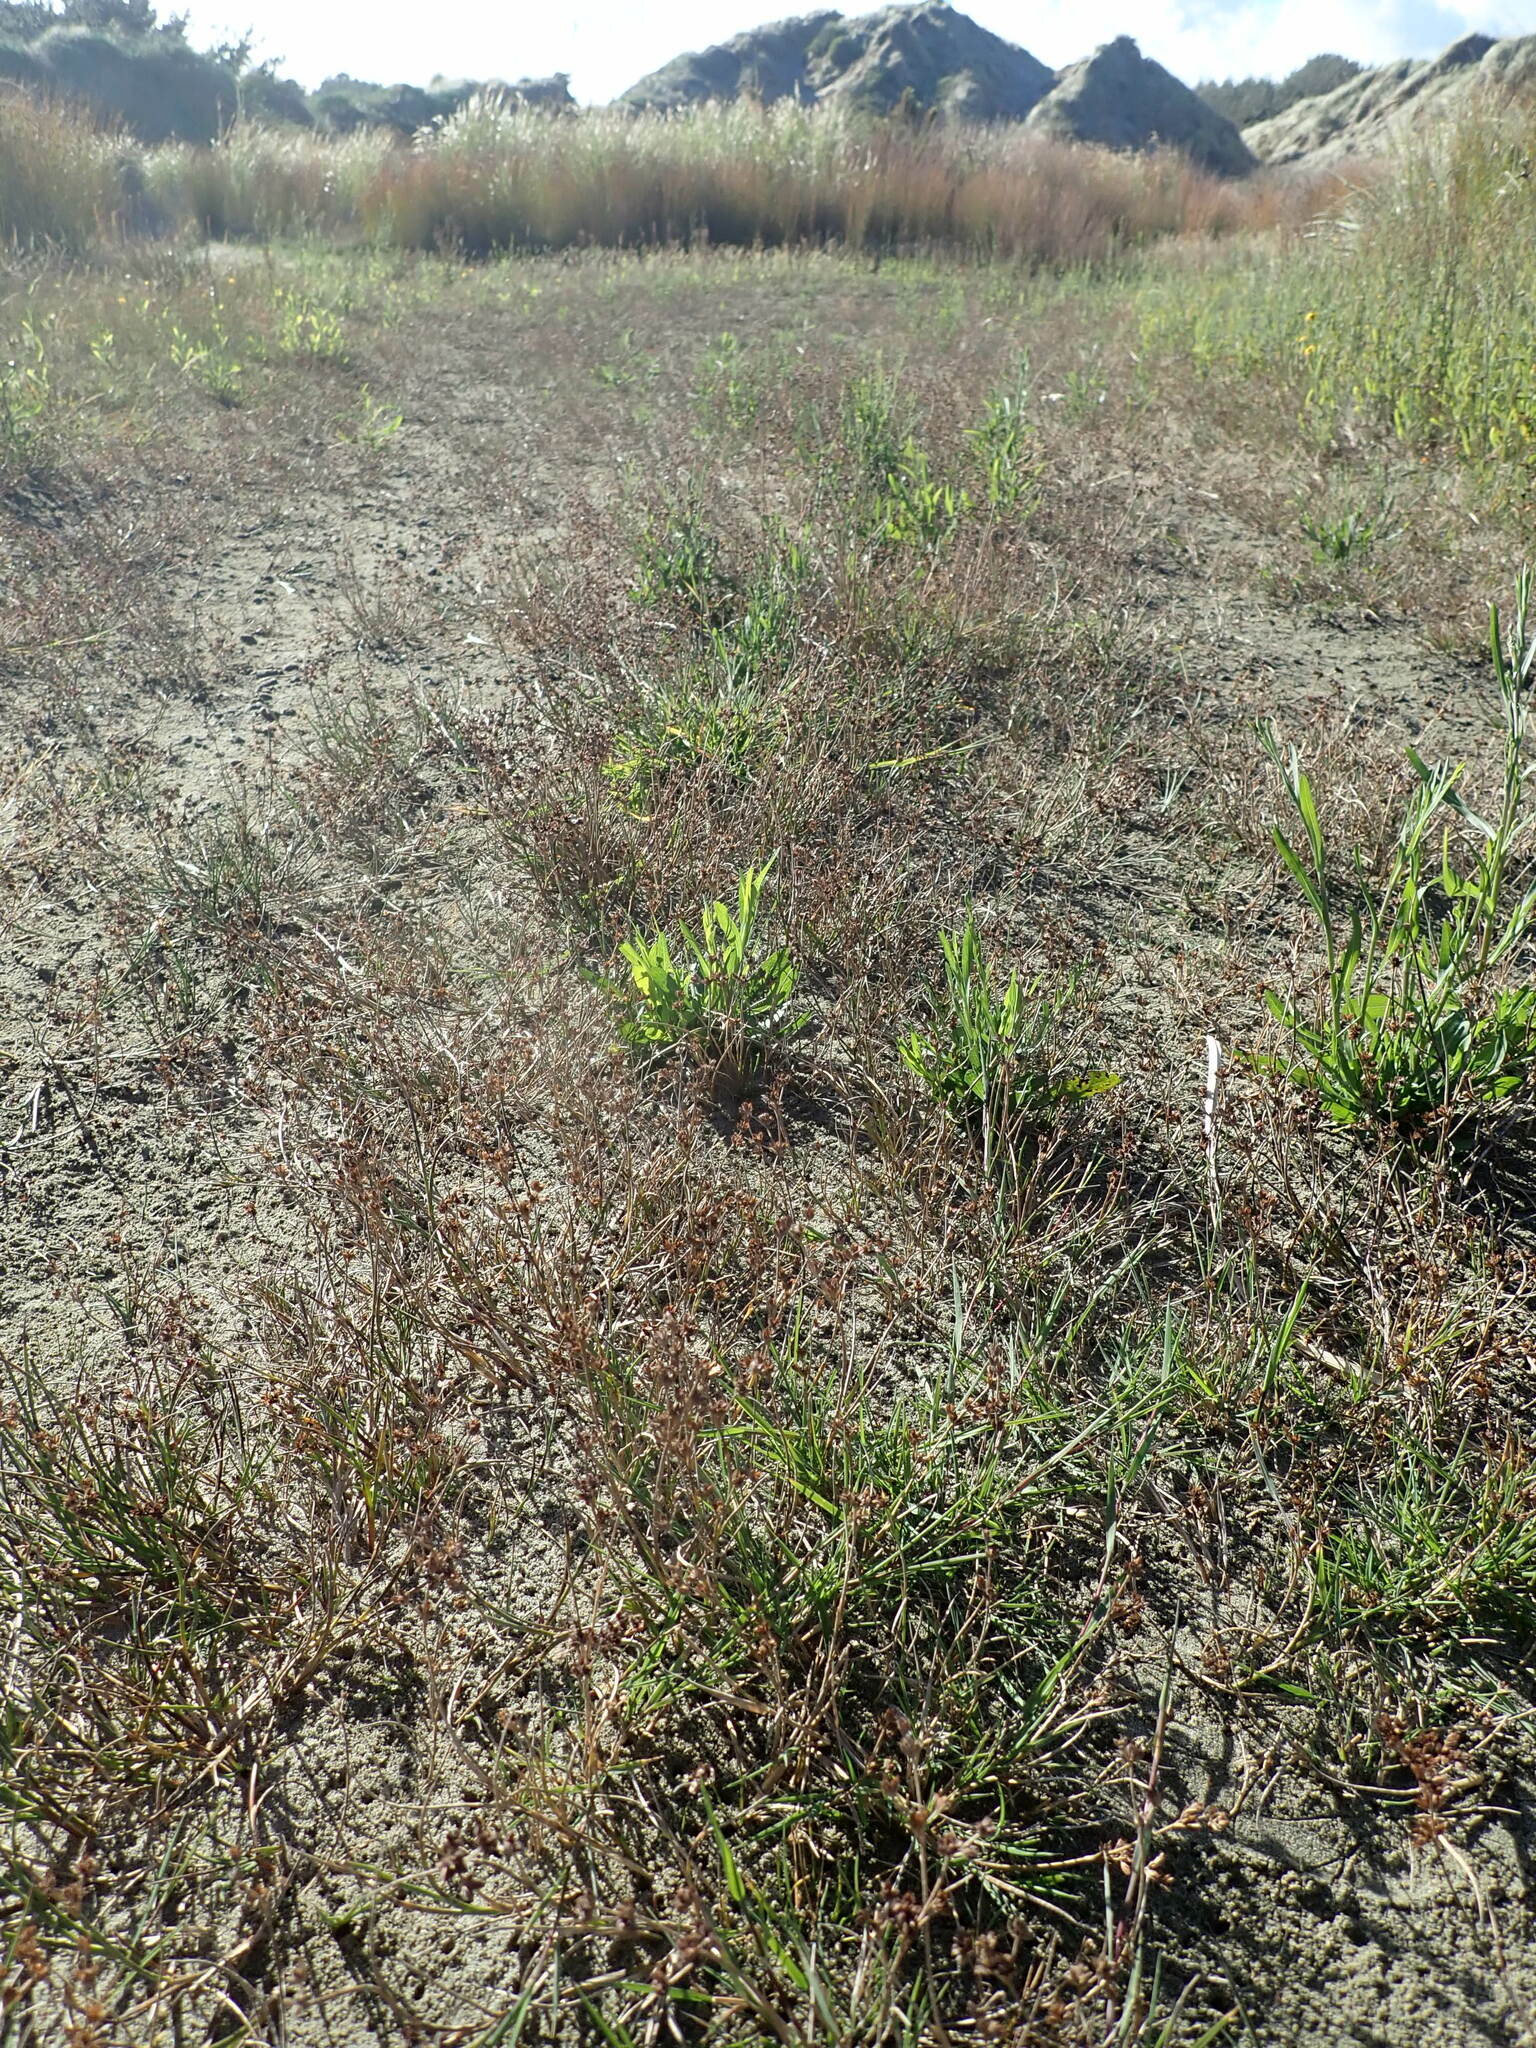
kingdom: Plantae
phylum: Tracheophyta
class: Liliopsida
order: Poales
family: Juncaceae
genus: Juncus
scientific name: Juncus articulatus
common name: Jointed rush
